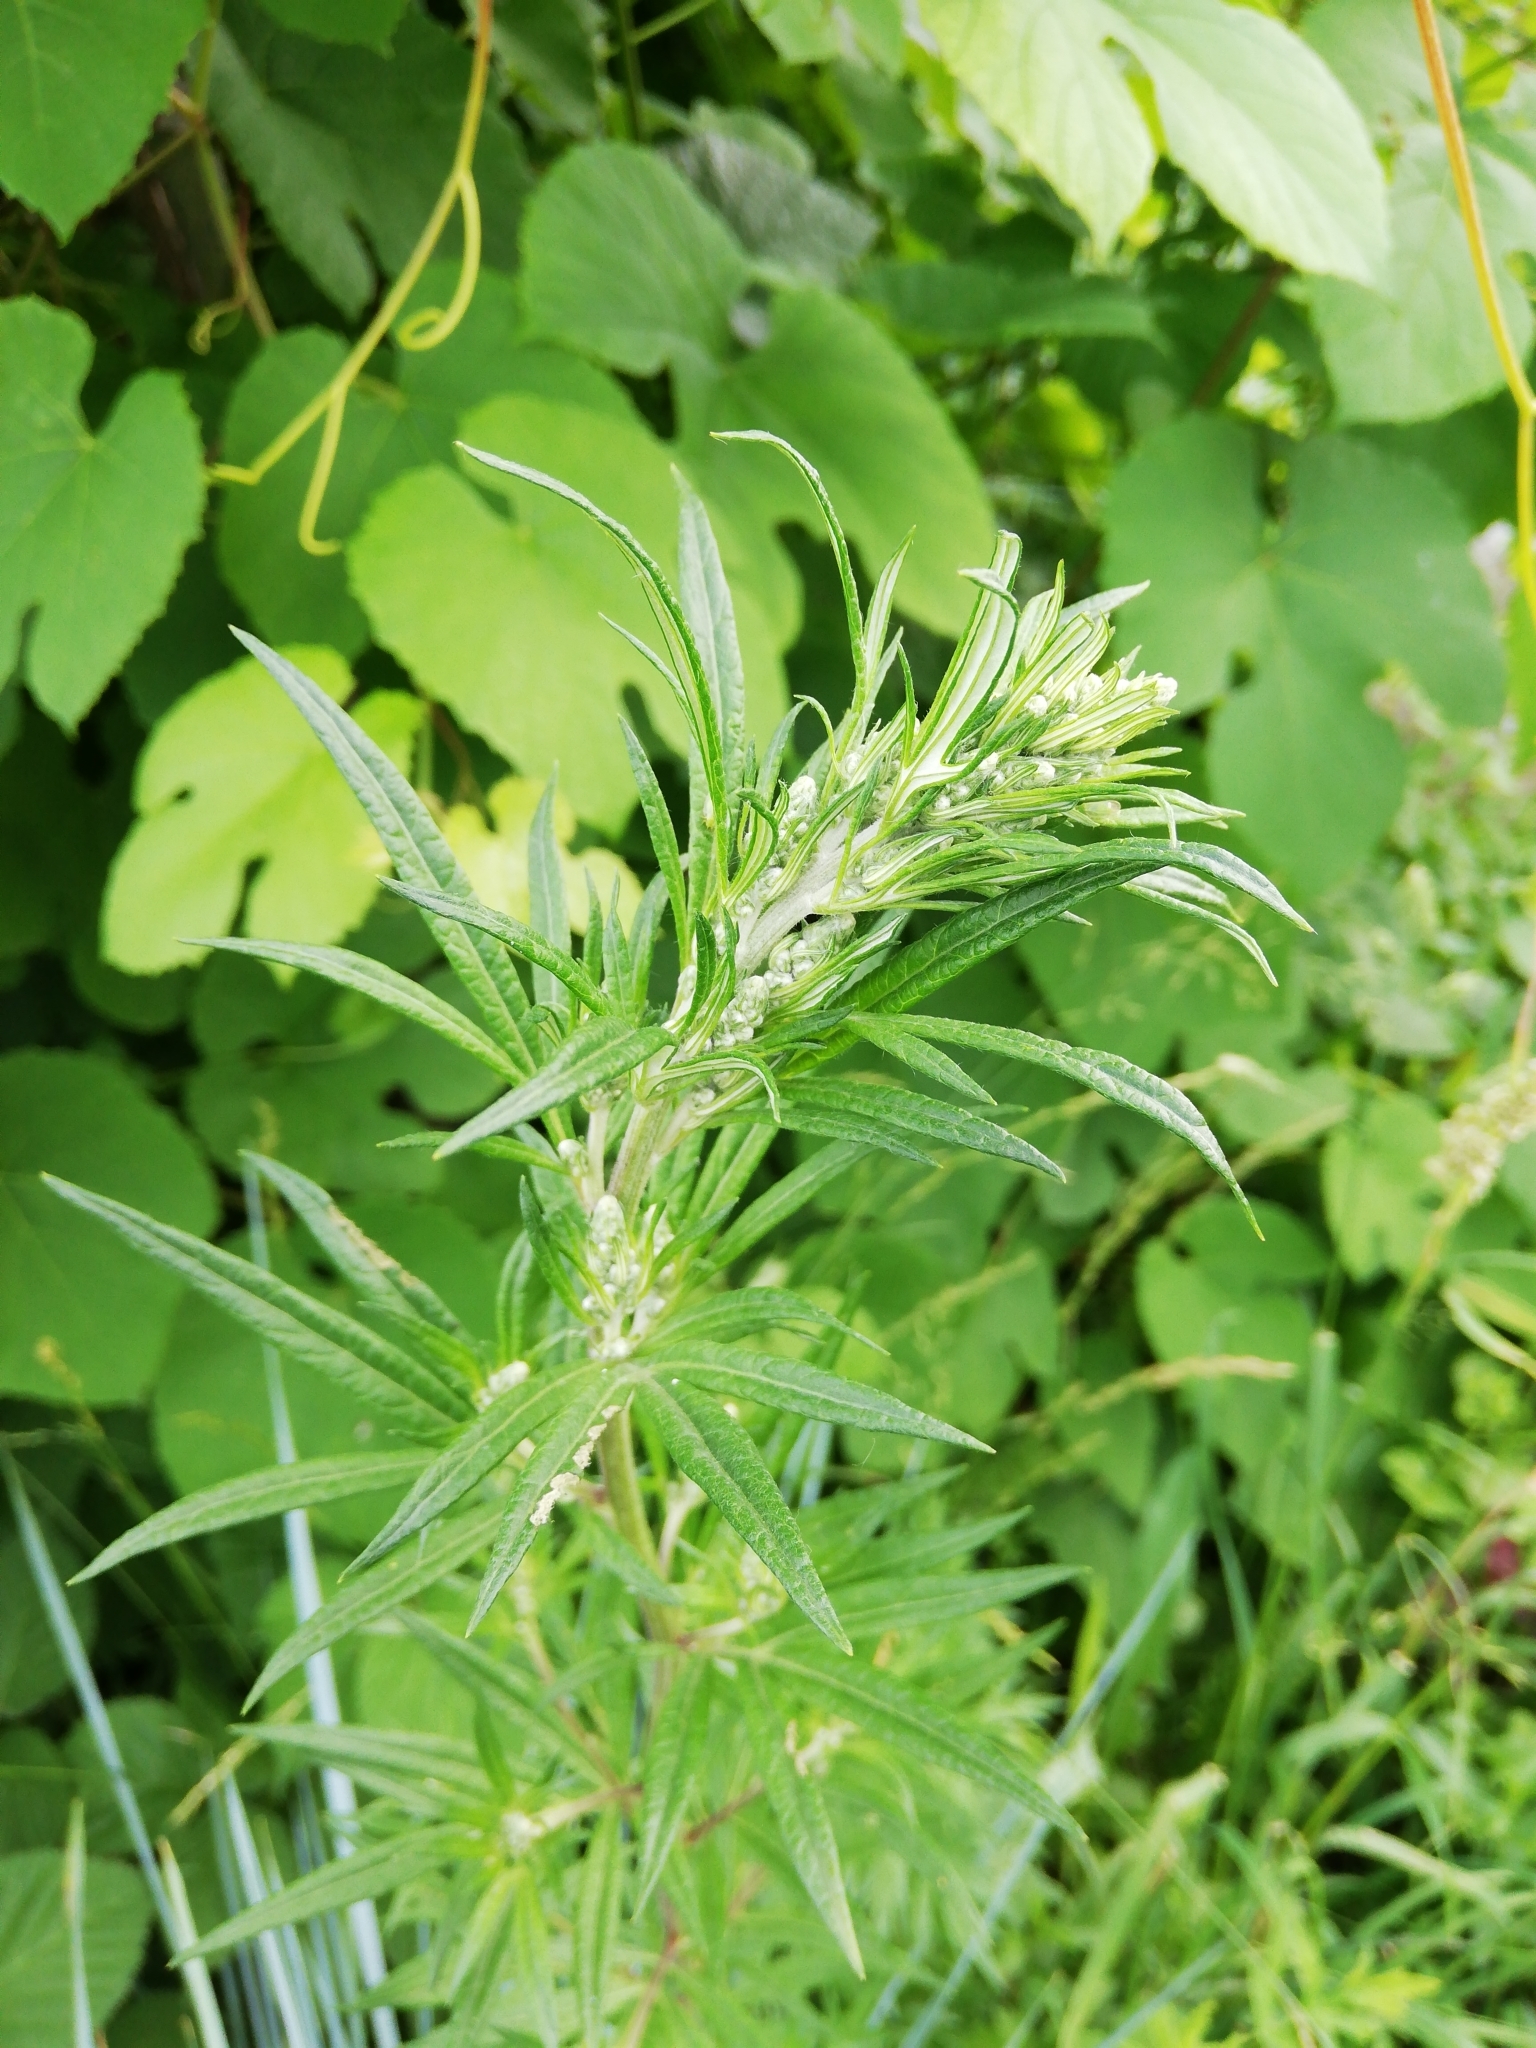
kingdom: Plantae
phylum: Tracheophyta
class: Magnoliopsida
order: Asterales
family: Asteraceae
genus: Artemisia
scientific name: Artemisia vulgaris
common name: Mugwort
